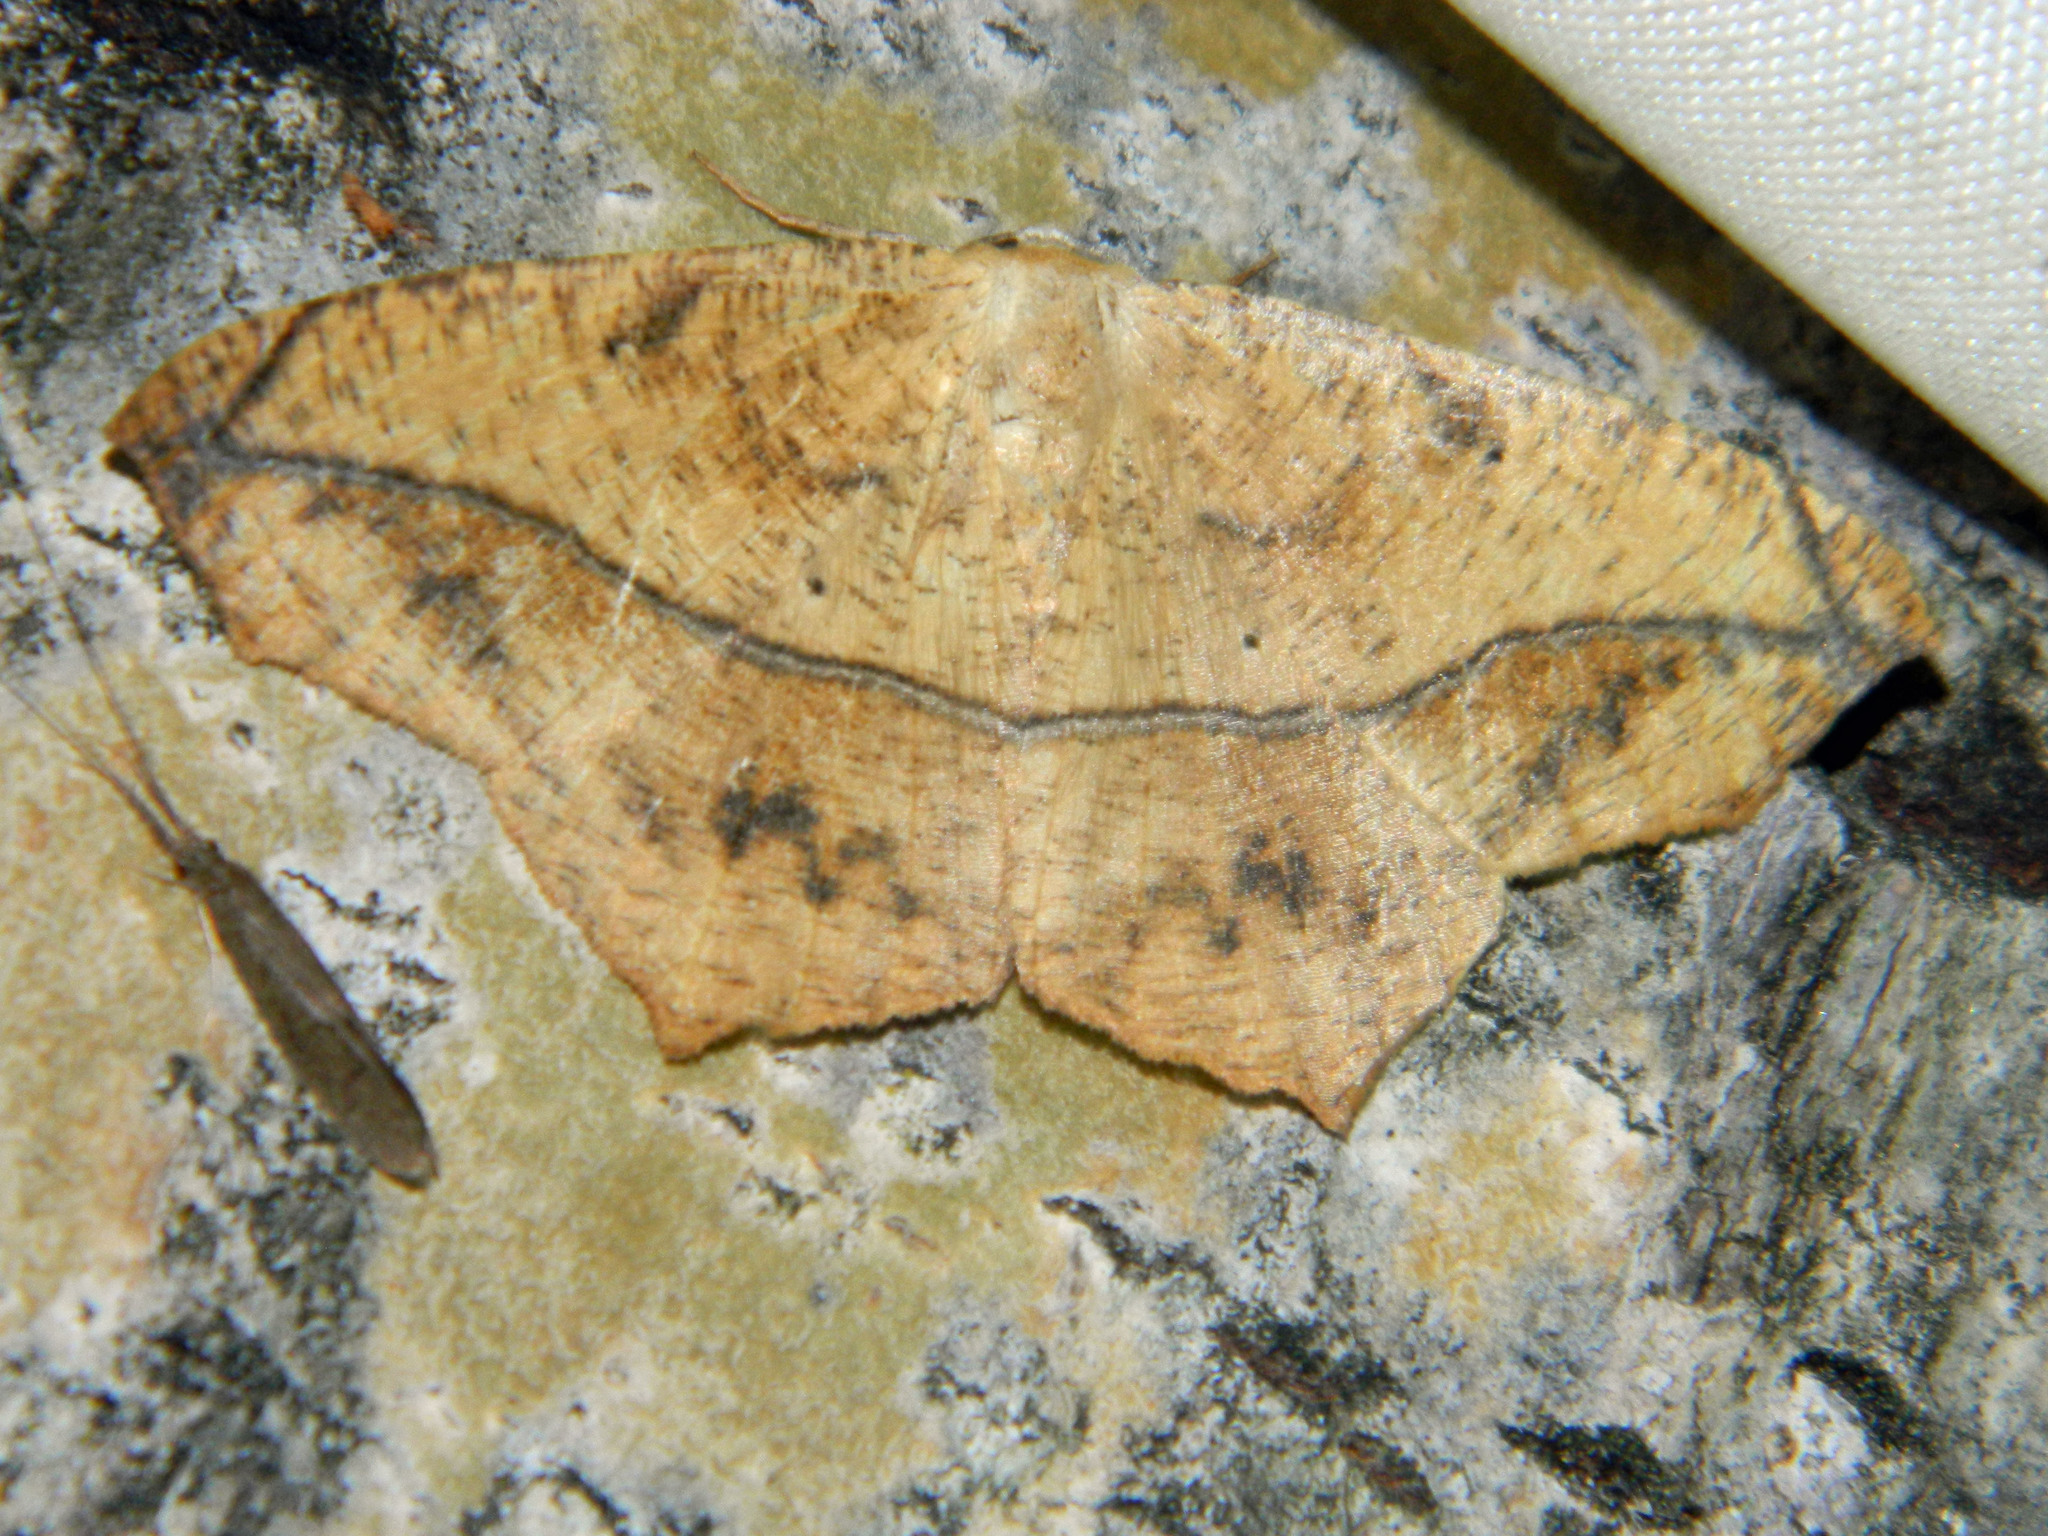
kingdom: Animalia
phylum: Arthropoda
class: Insecta
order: Lepidoptera
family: Geometridae
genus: Prochoerodes
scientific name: Prochoerodes lineola
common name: Large maple spanworm
